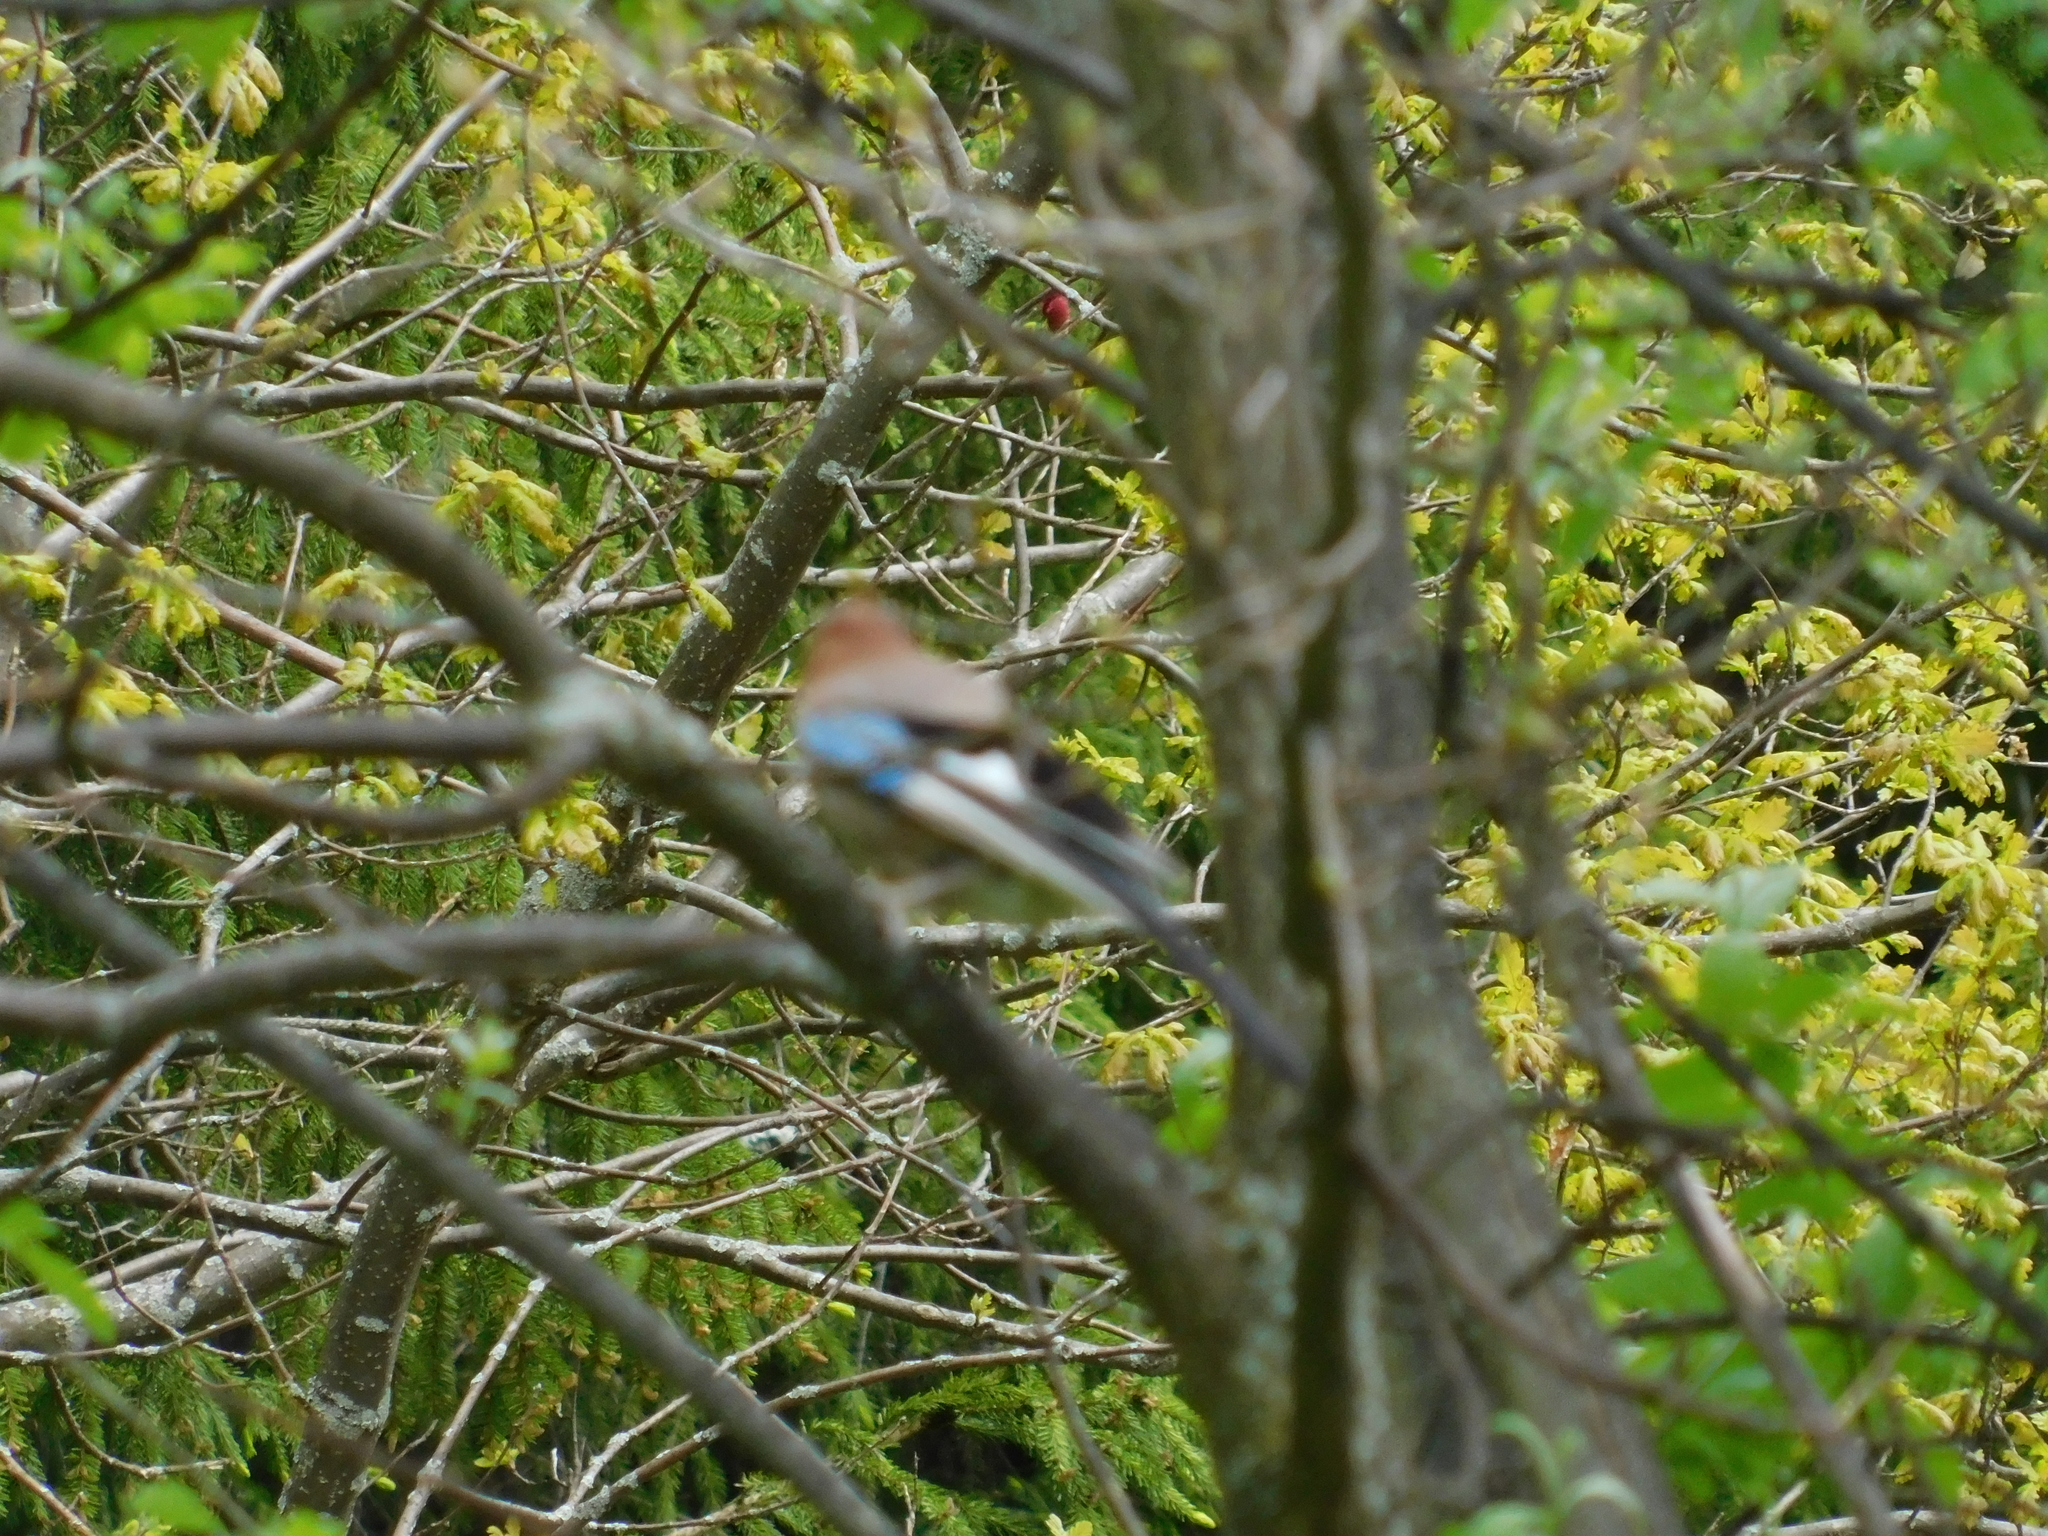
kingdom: Animalia
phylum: Chordata
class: Aves
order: Passeriformes
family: Corvidae
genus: Garrulus
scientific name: Garrulus glandarius
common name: Eurasian jay
